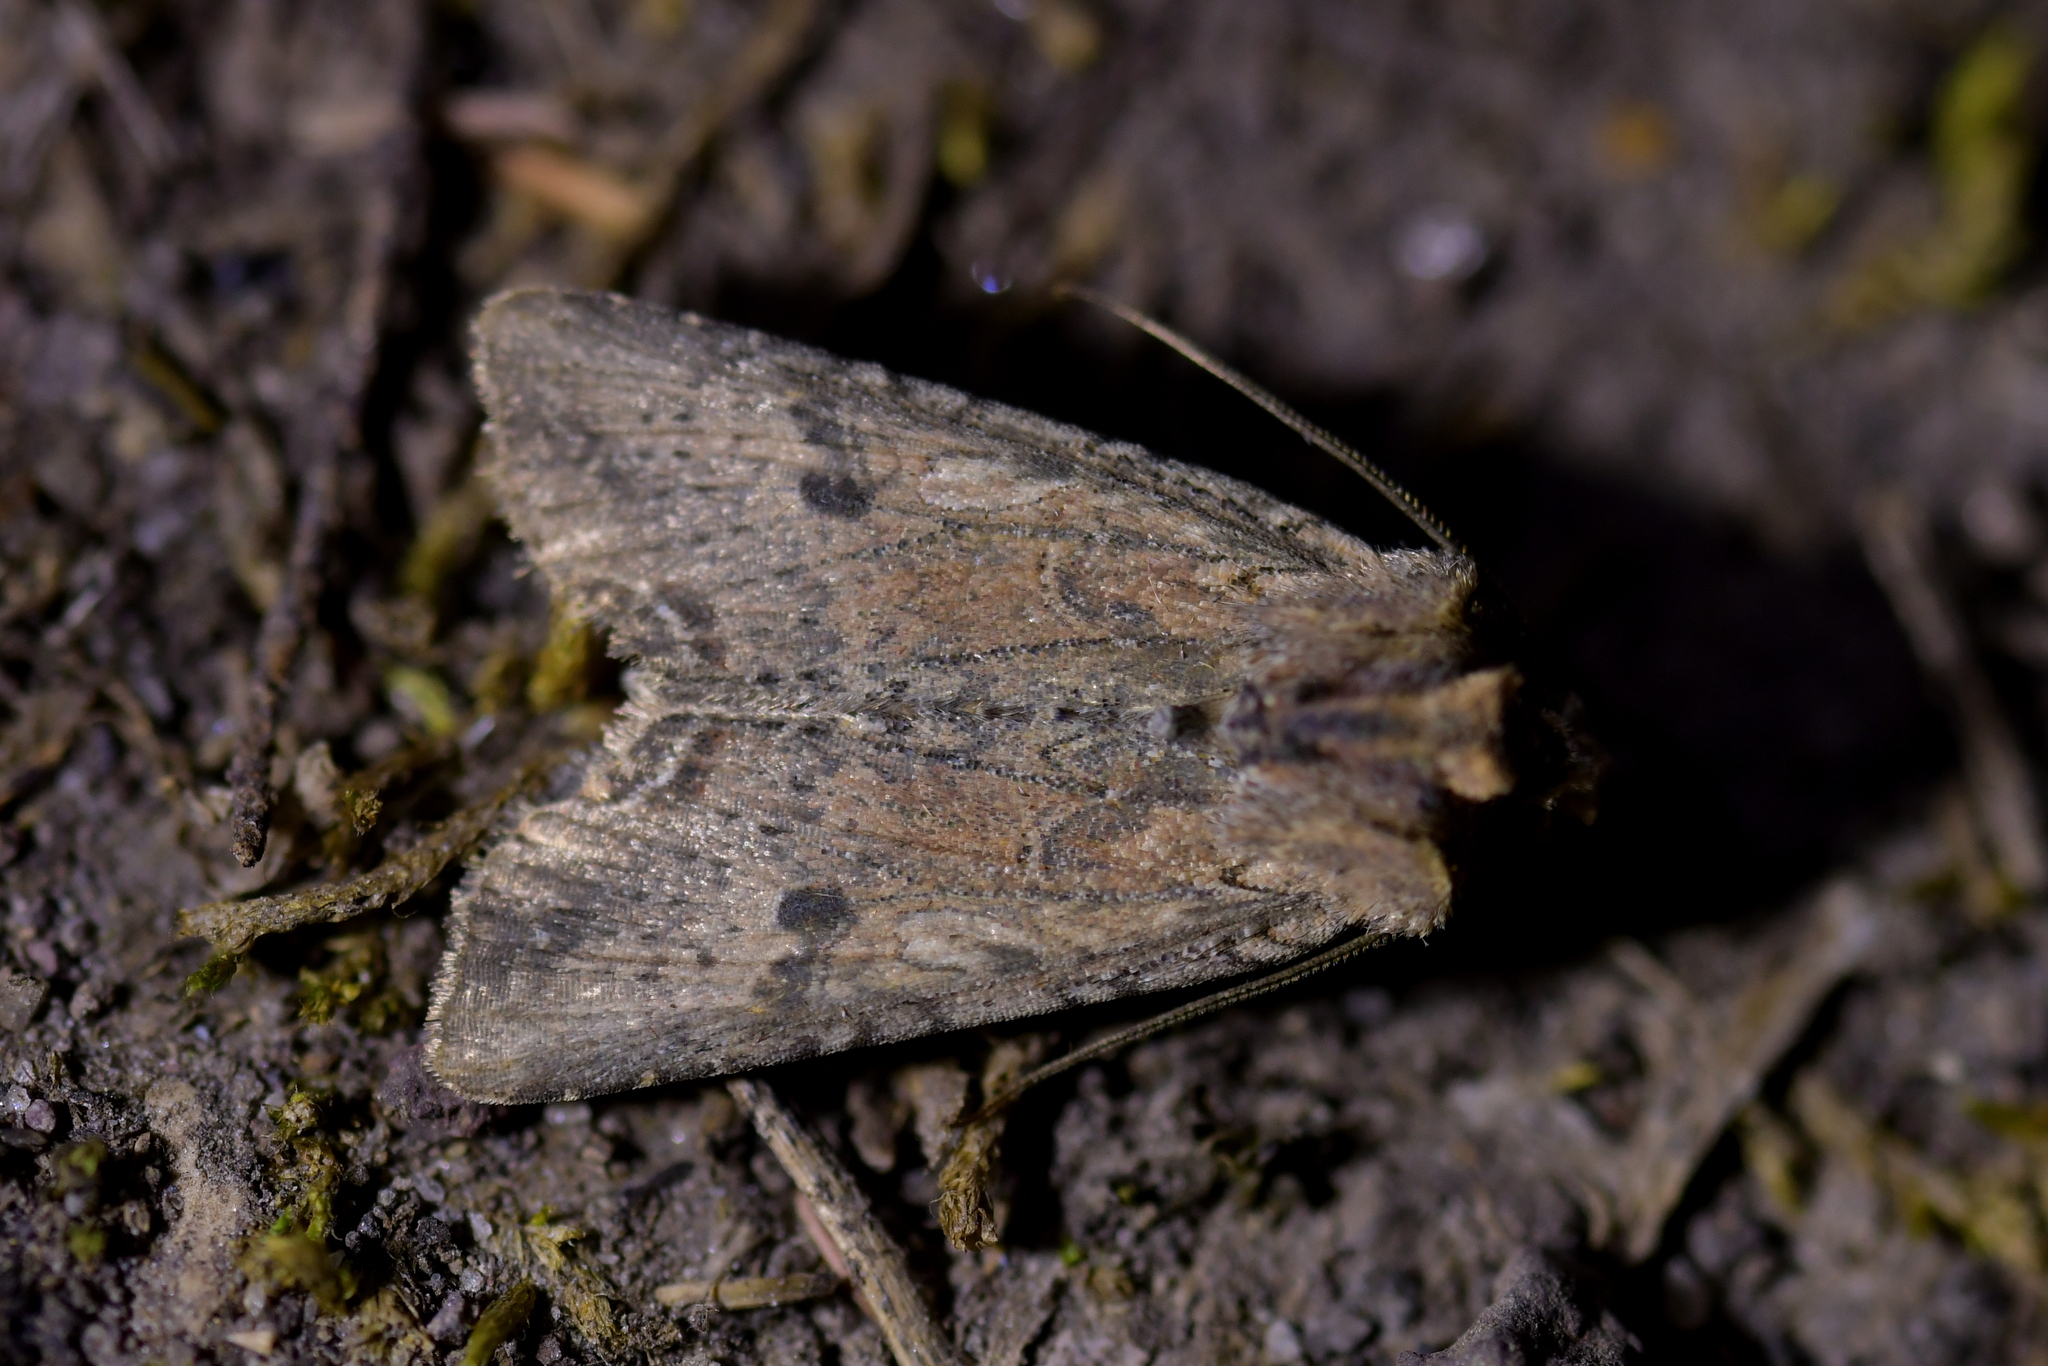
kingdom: Animalia
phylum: Arthropoda
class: Insecta
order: Lepidoptera
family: Noctuidae
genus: Meterana
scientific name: Meterana coeleno
